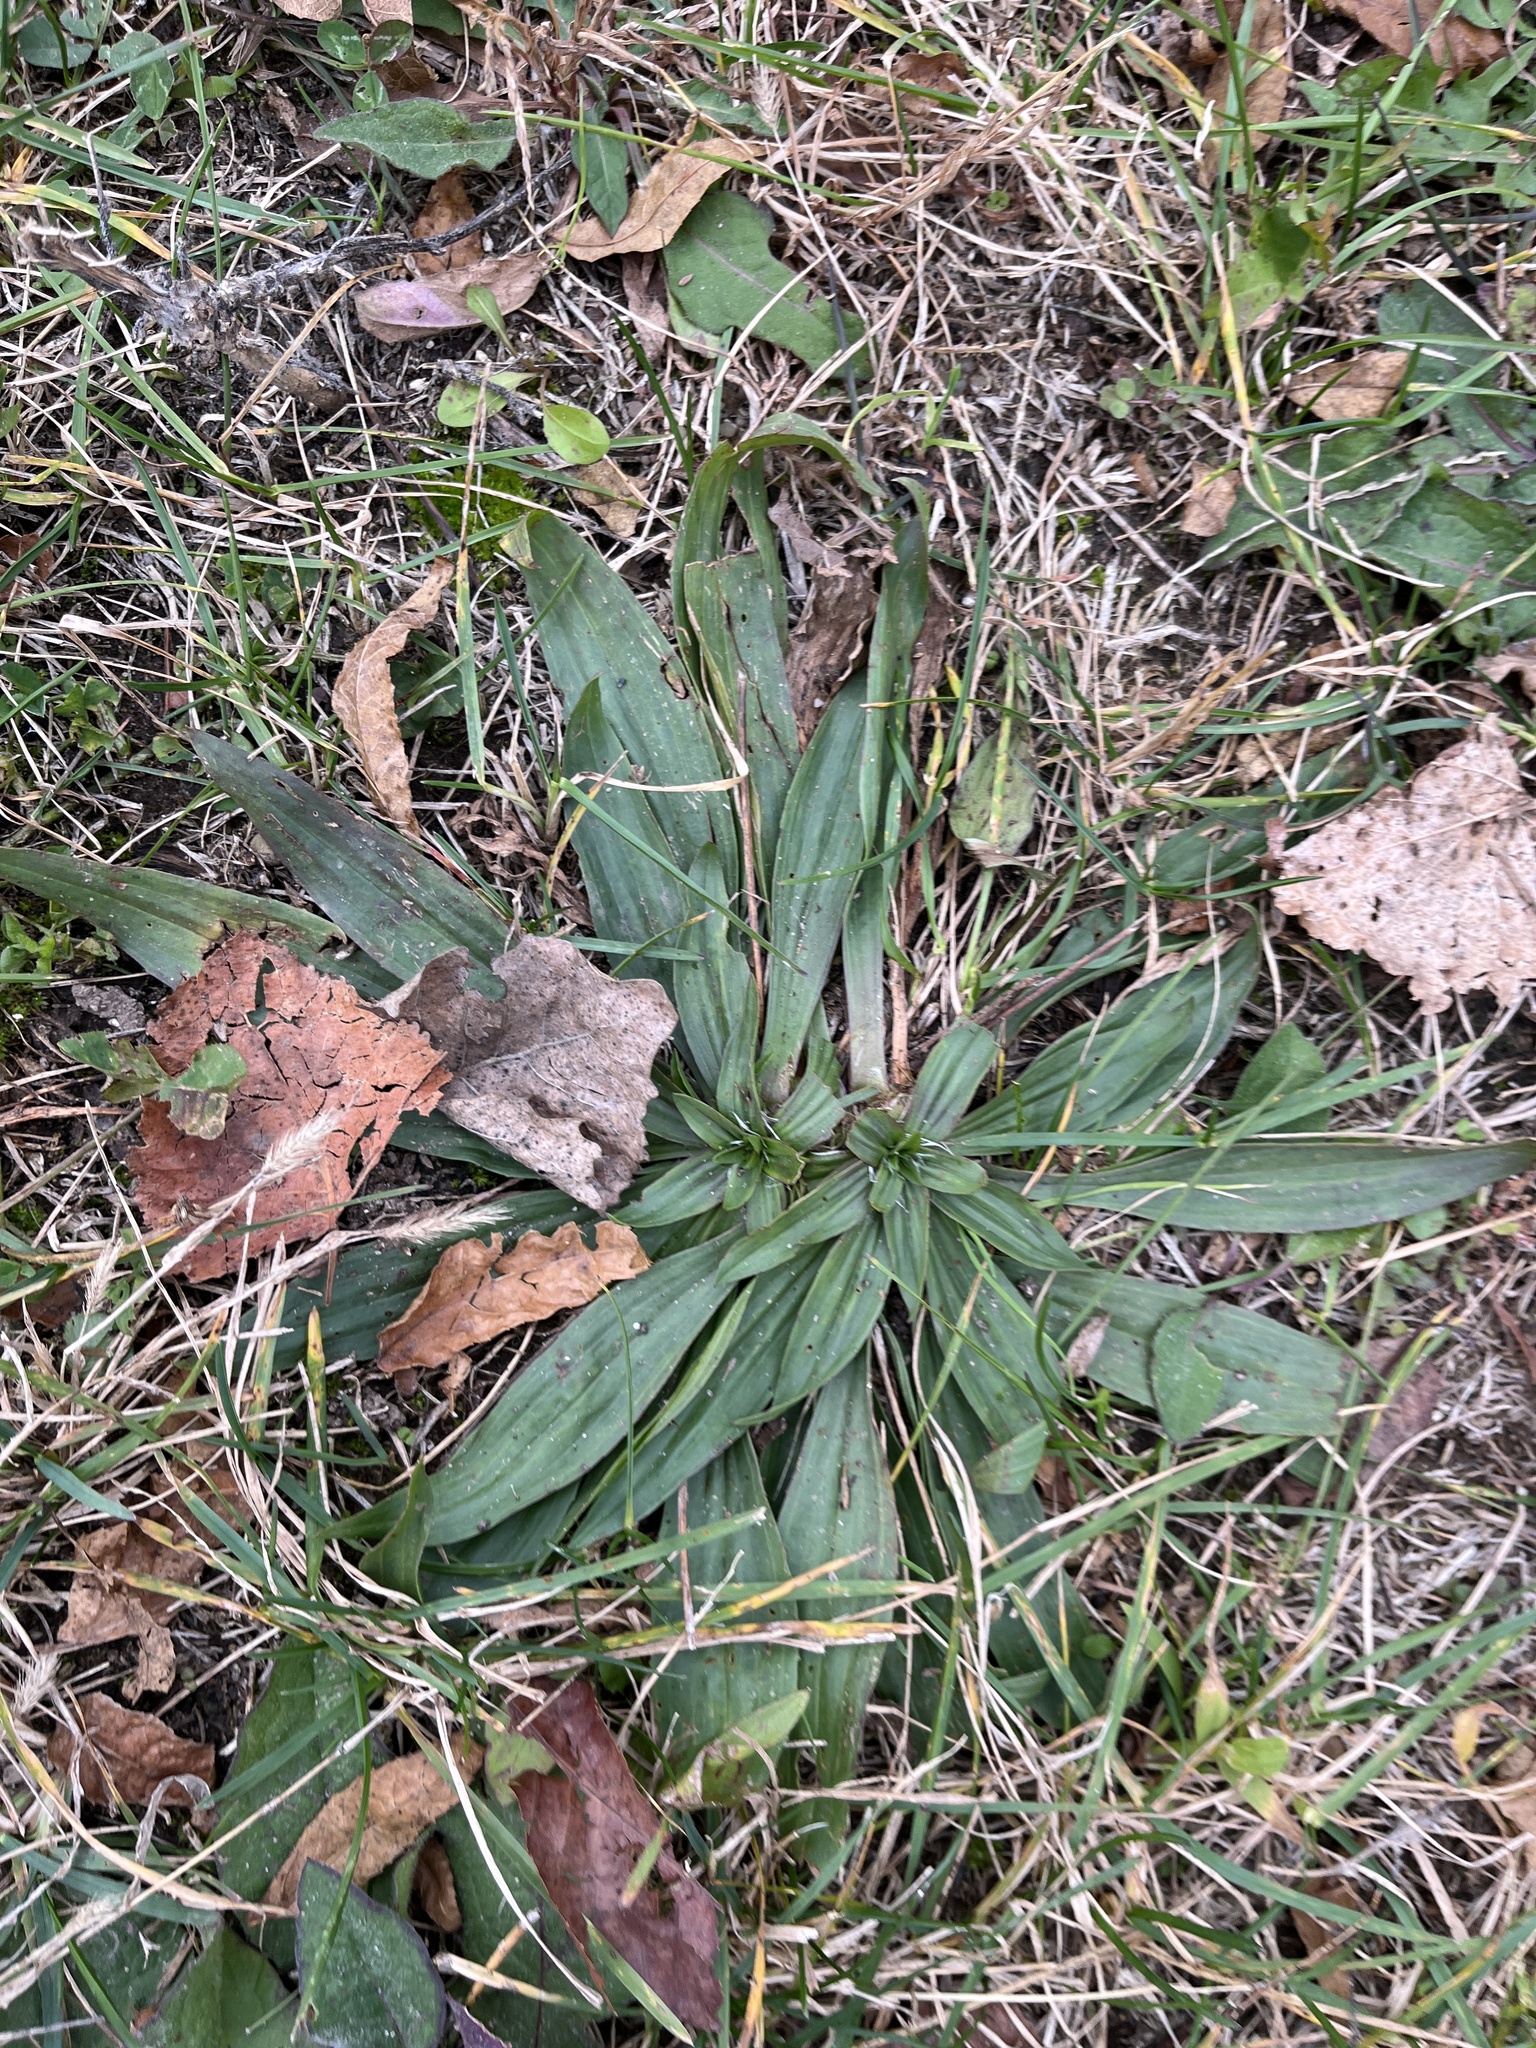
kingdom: Plantae
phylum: Tracheophyta
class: Magnoliopsida
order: Lamiales
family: Plantaginaceae
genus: Plantago
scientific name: Plantago lanceolata
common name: Ribwort plantain
